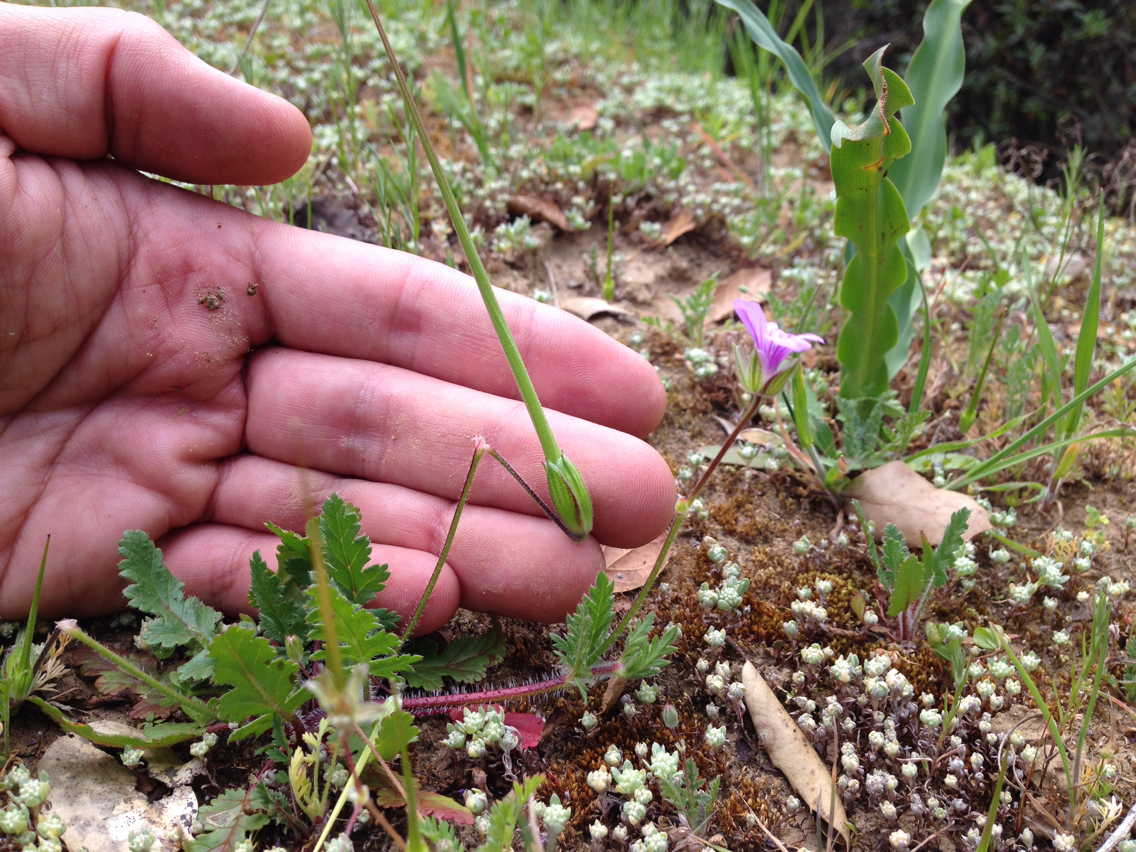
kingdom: Plantae
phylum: Tracheophyta
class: Magnoliopsida
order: Geraniales
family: Geraniaceae
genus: Erodium
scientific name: Erodium botrys
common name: Mediterranean stork's-bill
